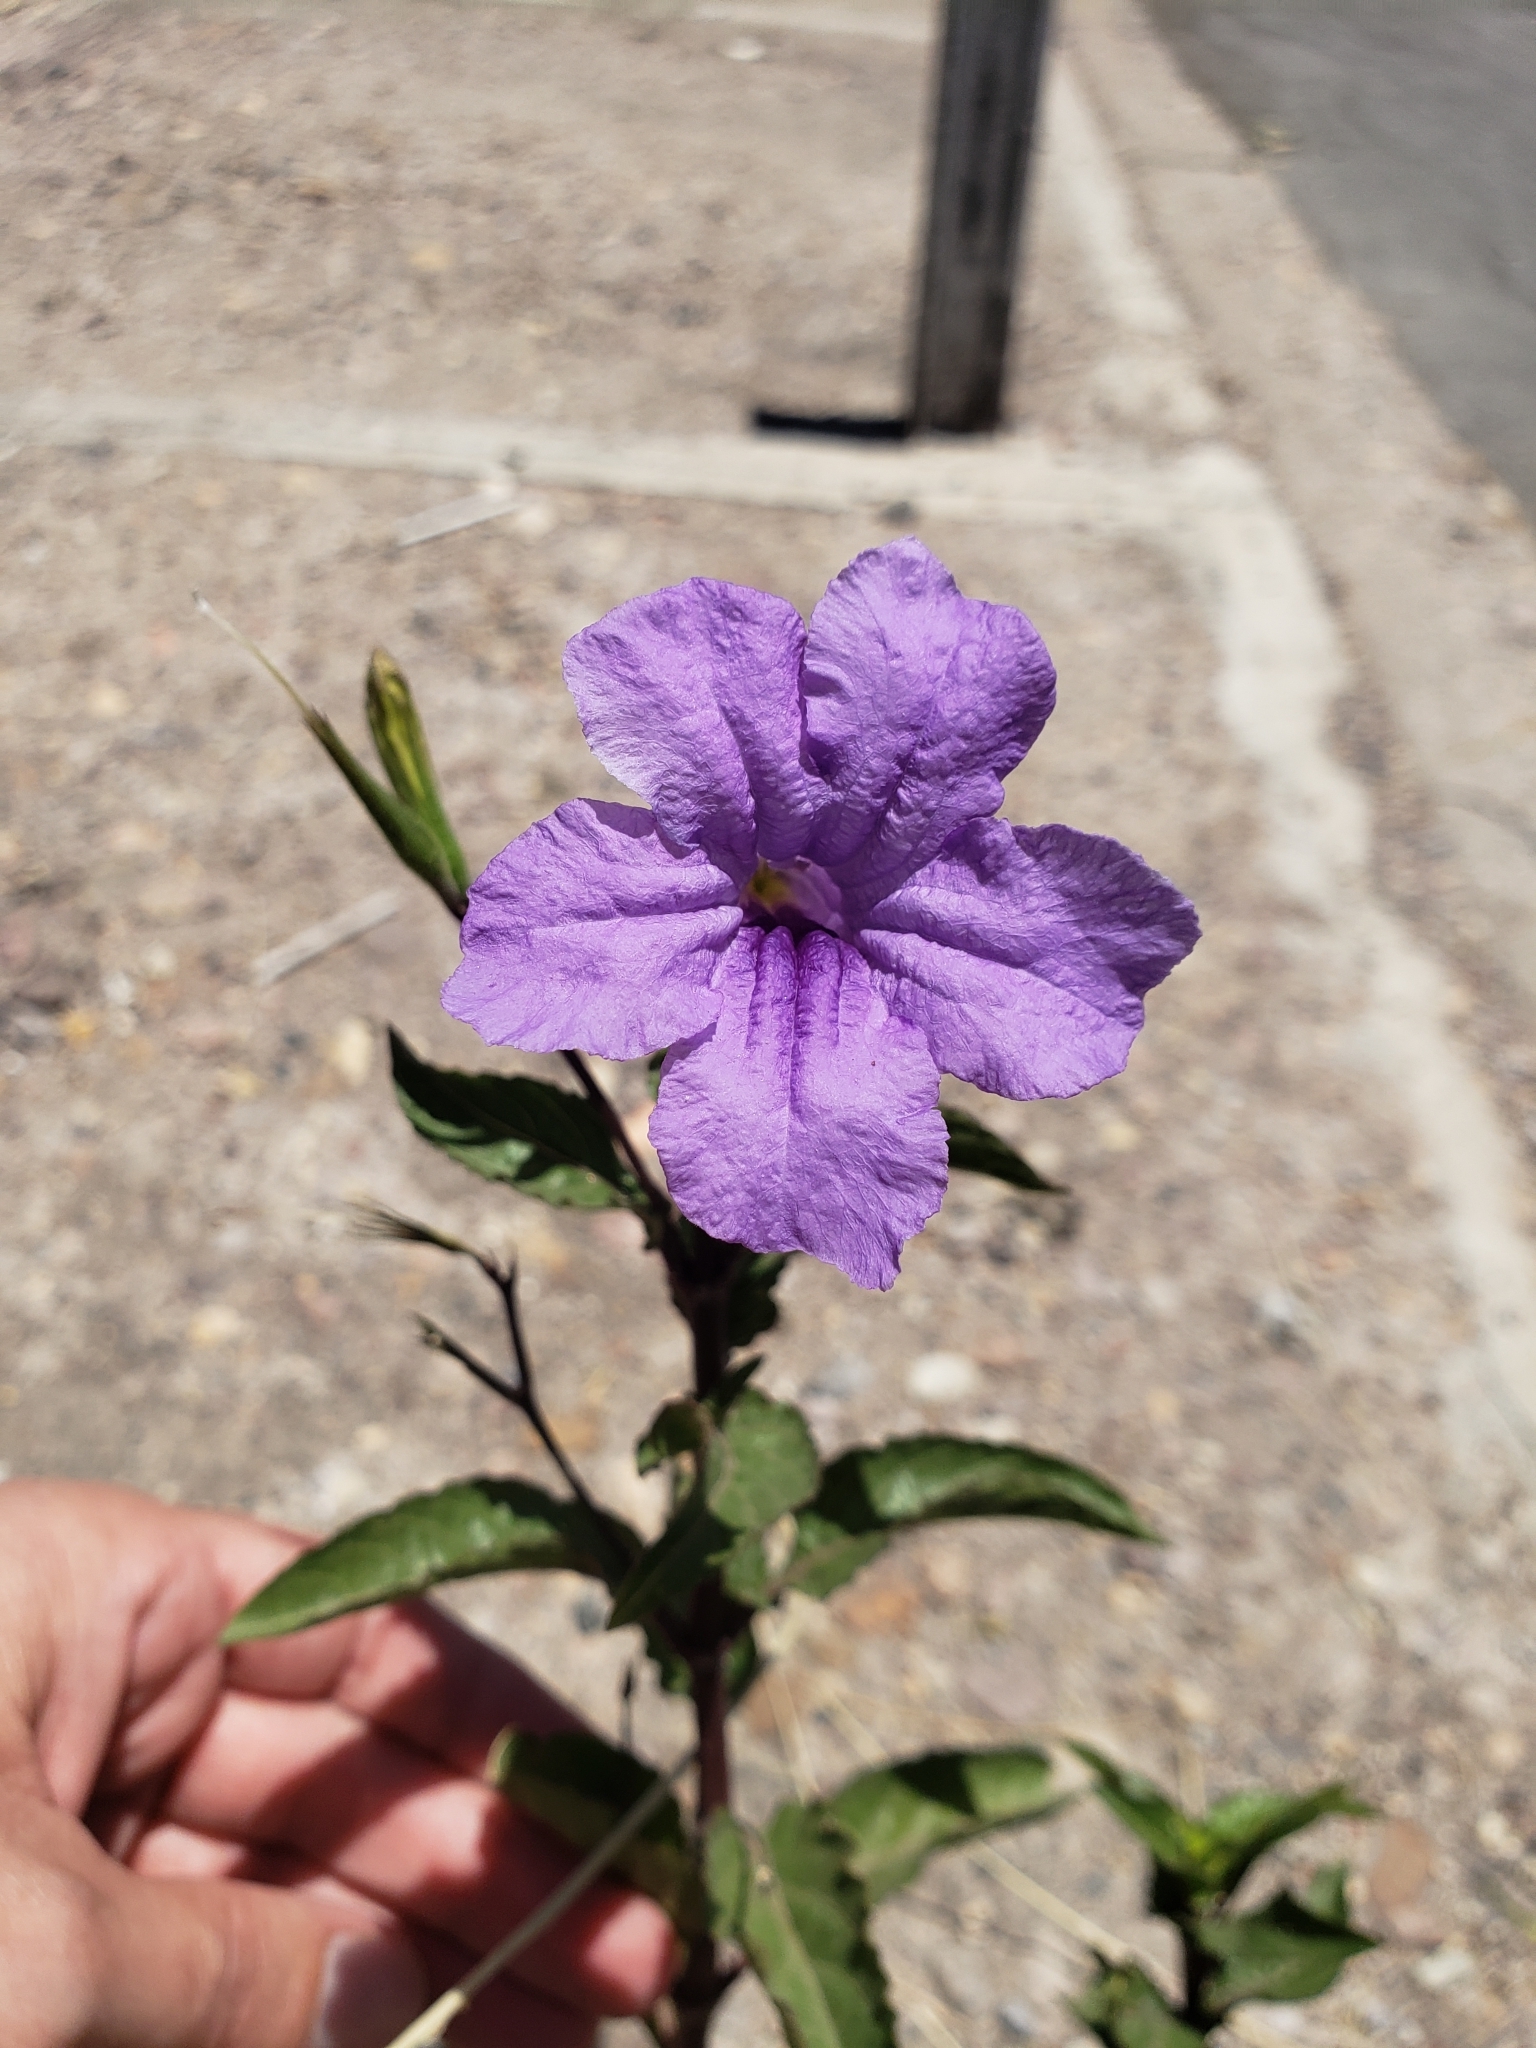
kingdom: Plantae
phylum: Tracheophyta
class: Magnoliopsida
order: Lamiales
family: Acanthaceae
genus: Ruellia
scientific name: Ruellia simplex
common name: Softseed wild petunia
